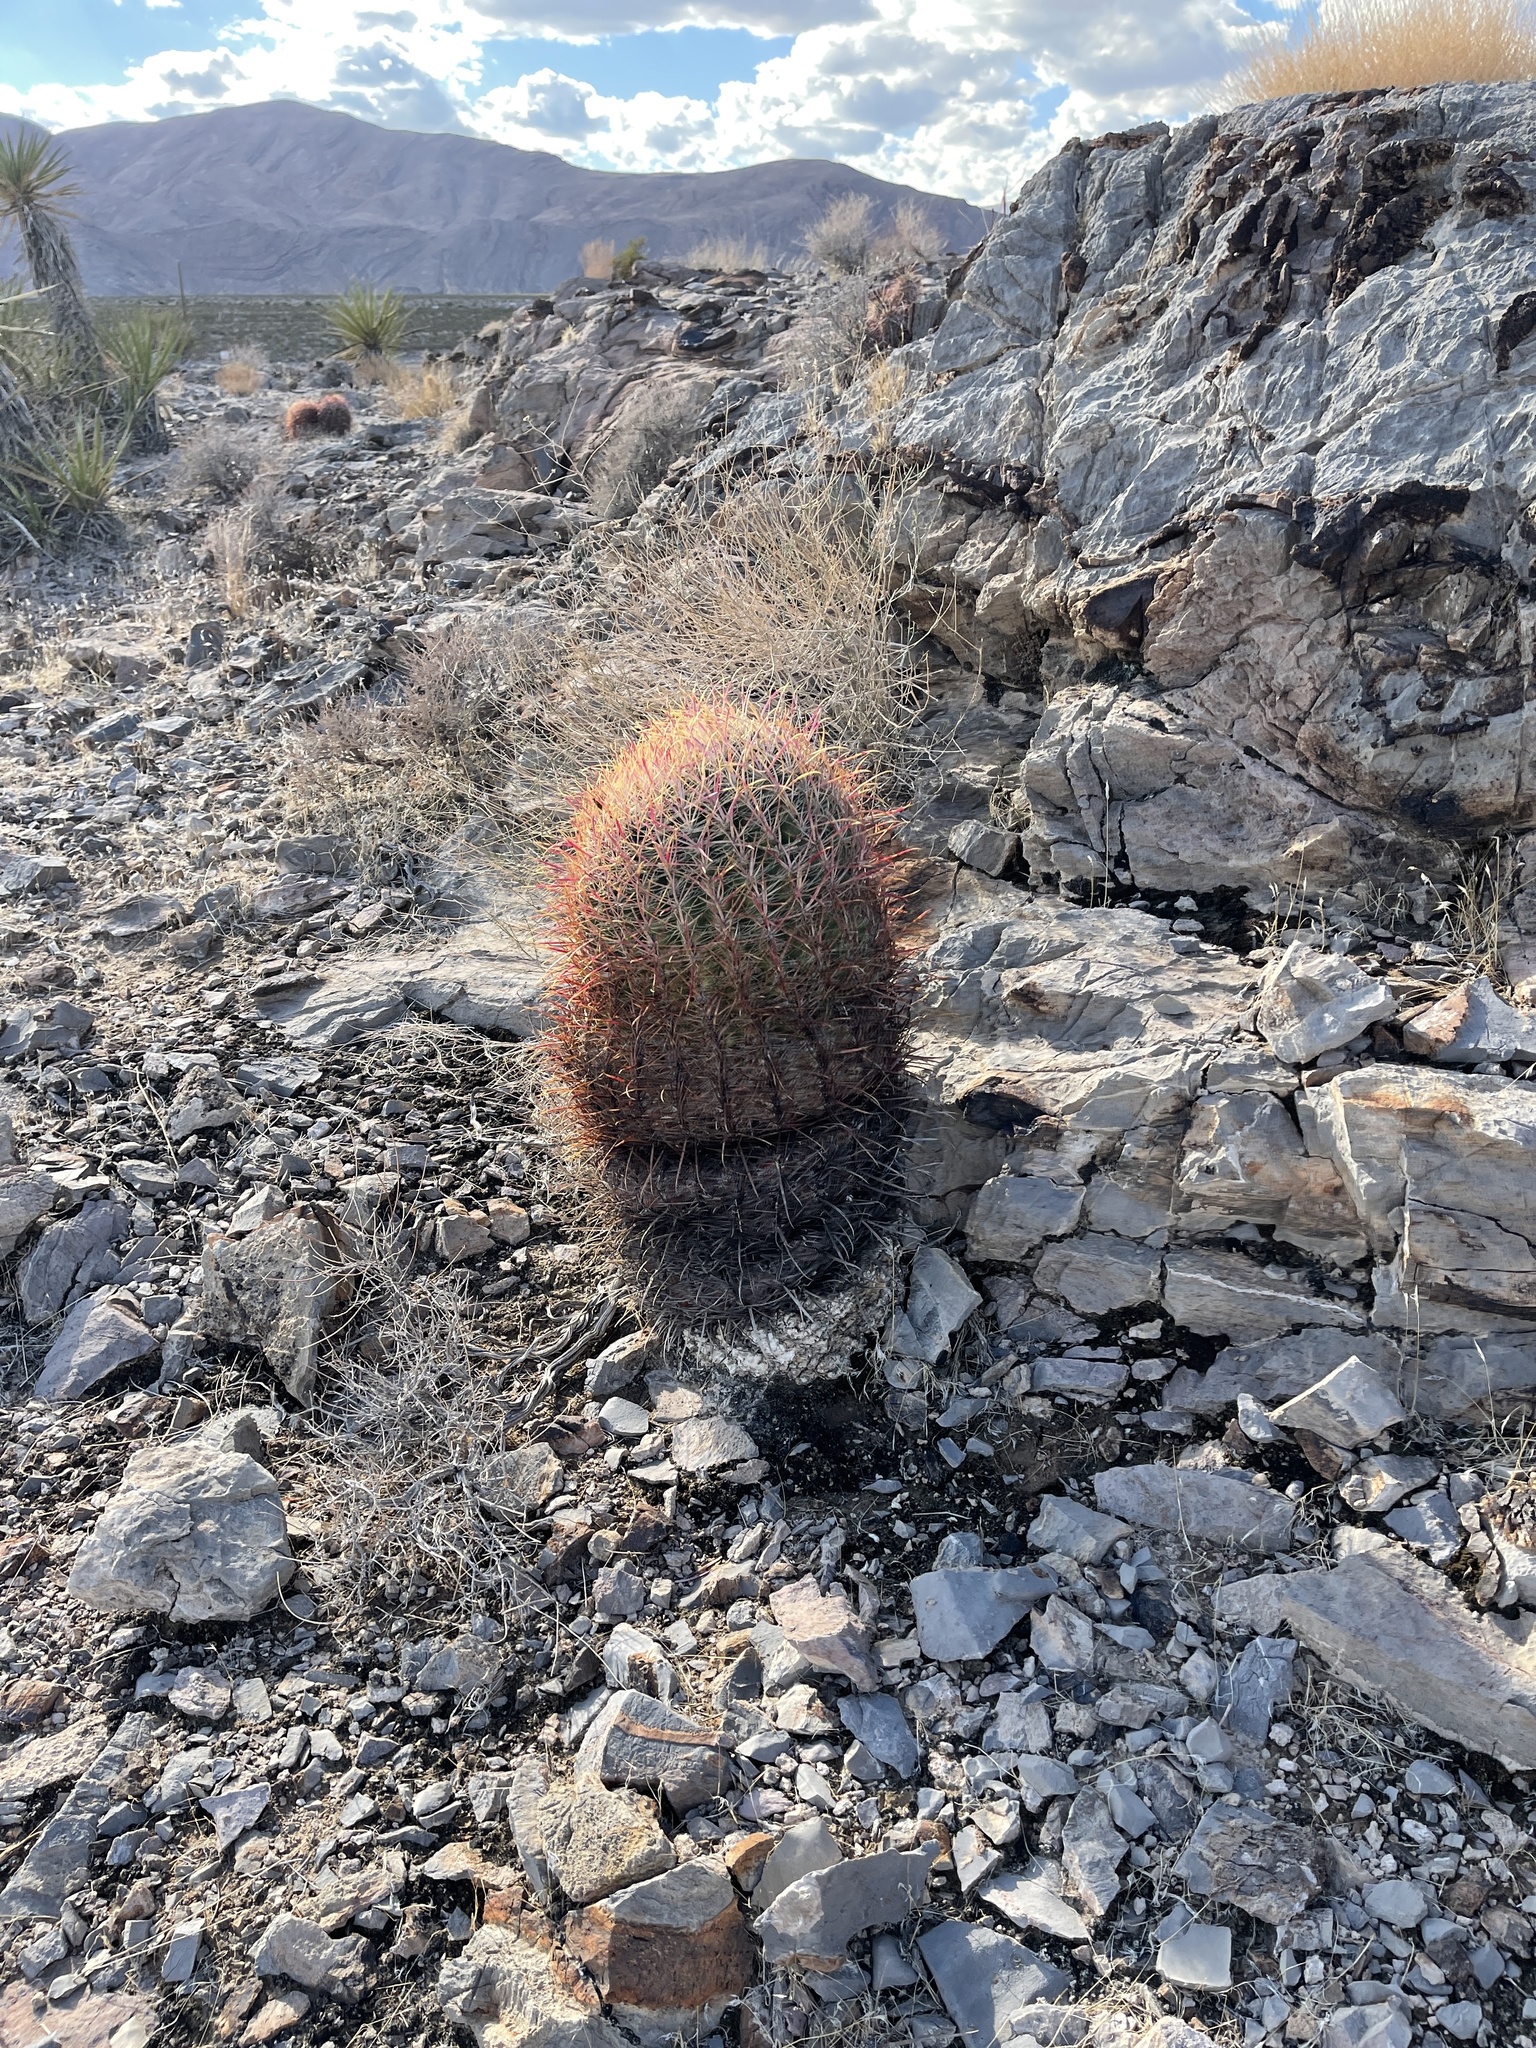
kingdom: Plantae
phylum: Tracheophyta
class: Magnoliopsida
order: Caryophyllales
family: Cactaceae
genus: Ferocactus
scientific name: Ferocactus cylindraceus
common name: California barrel cactus
